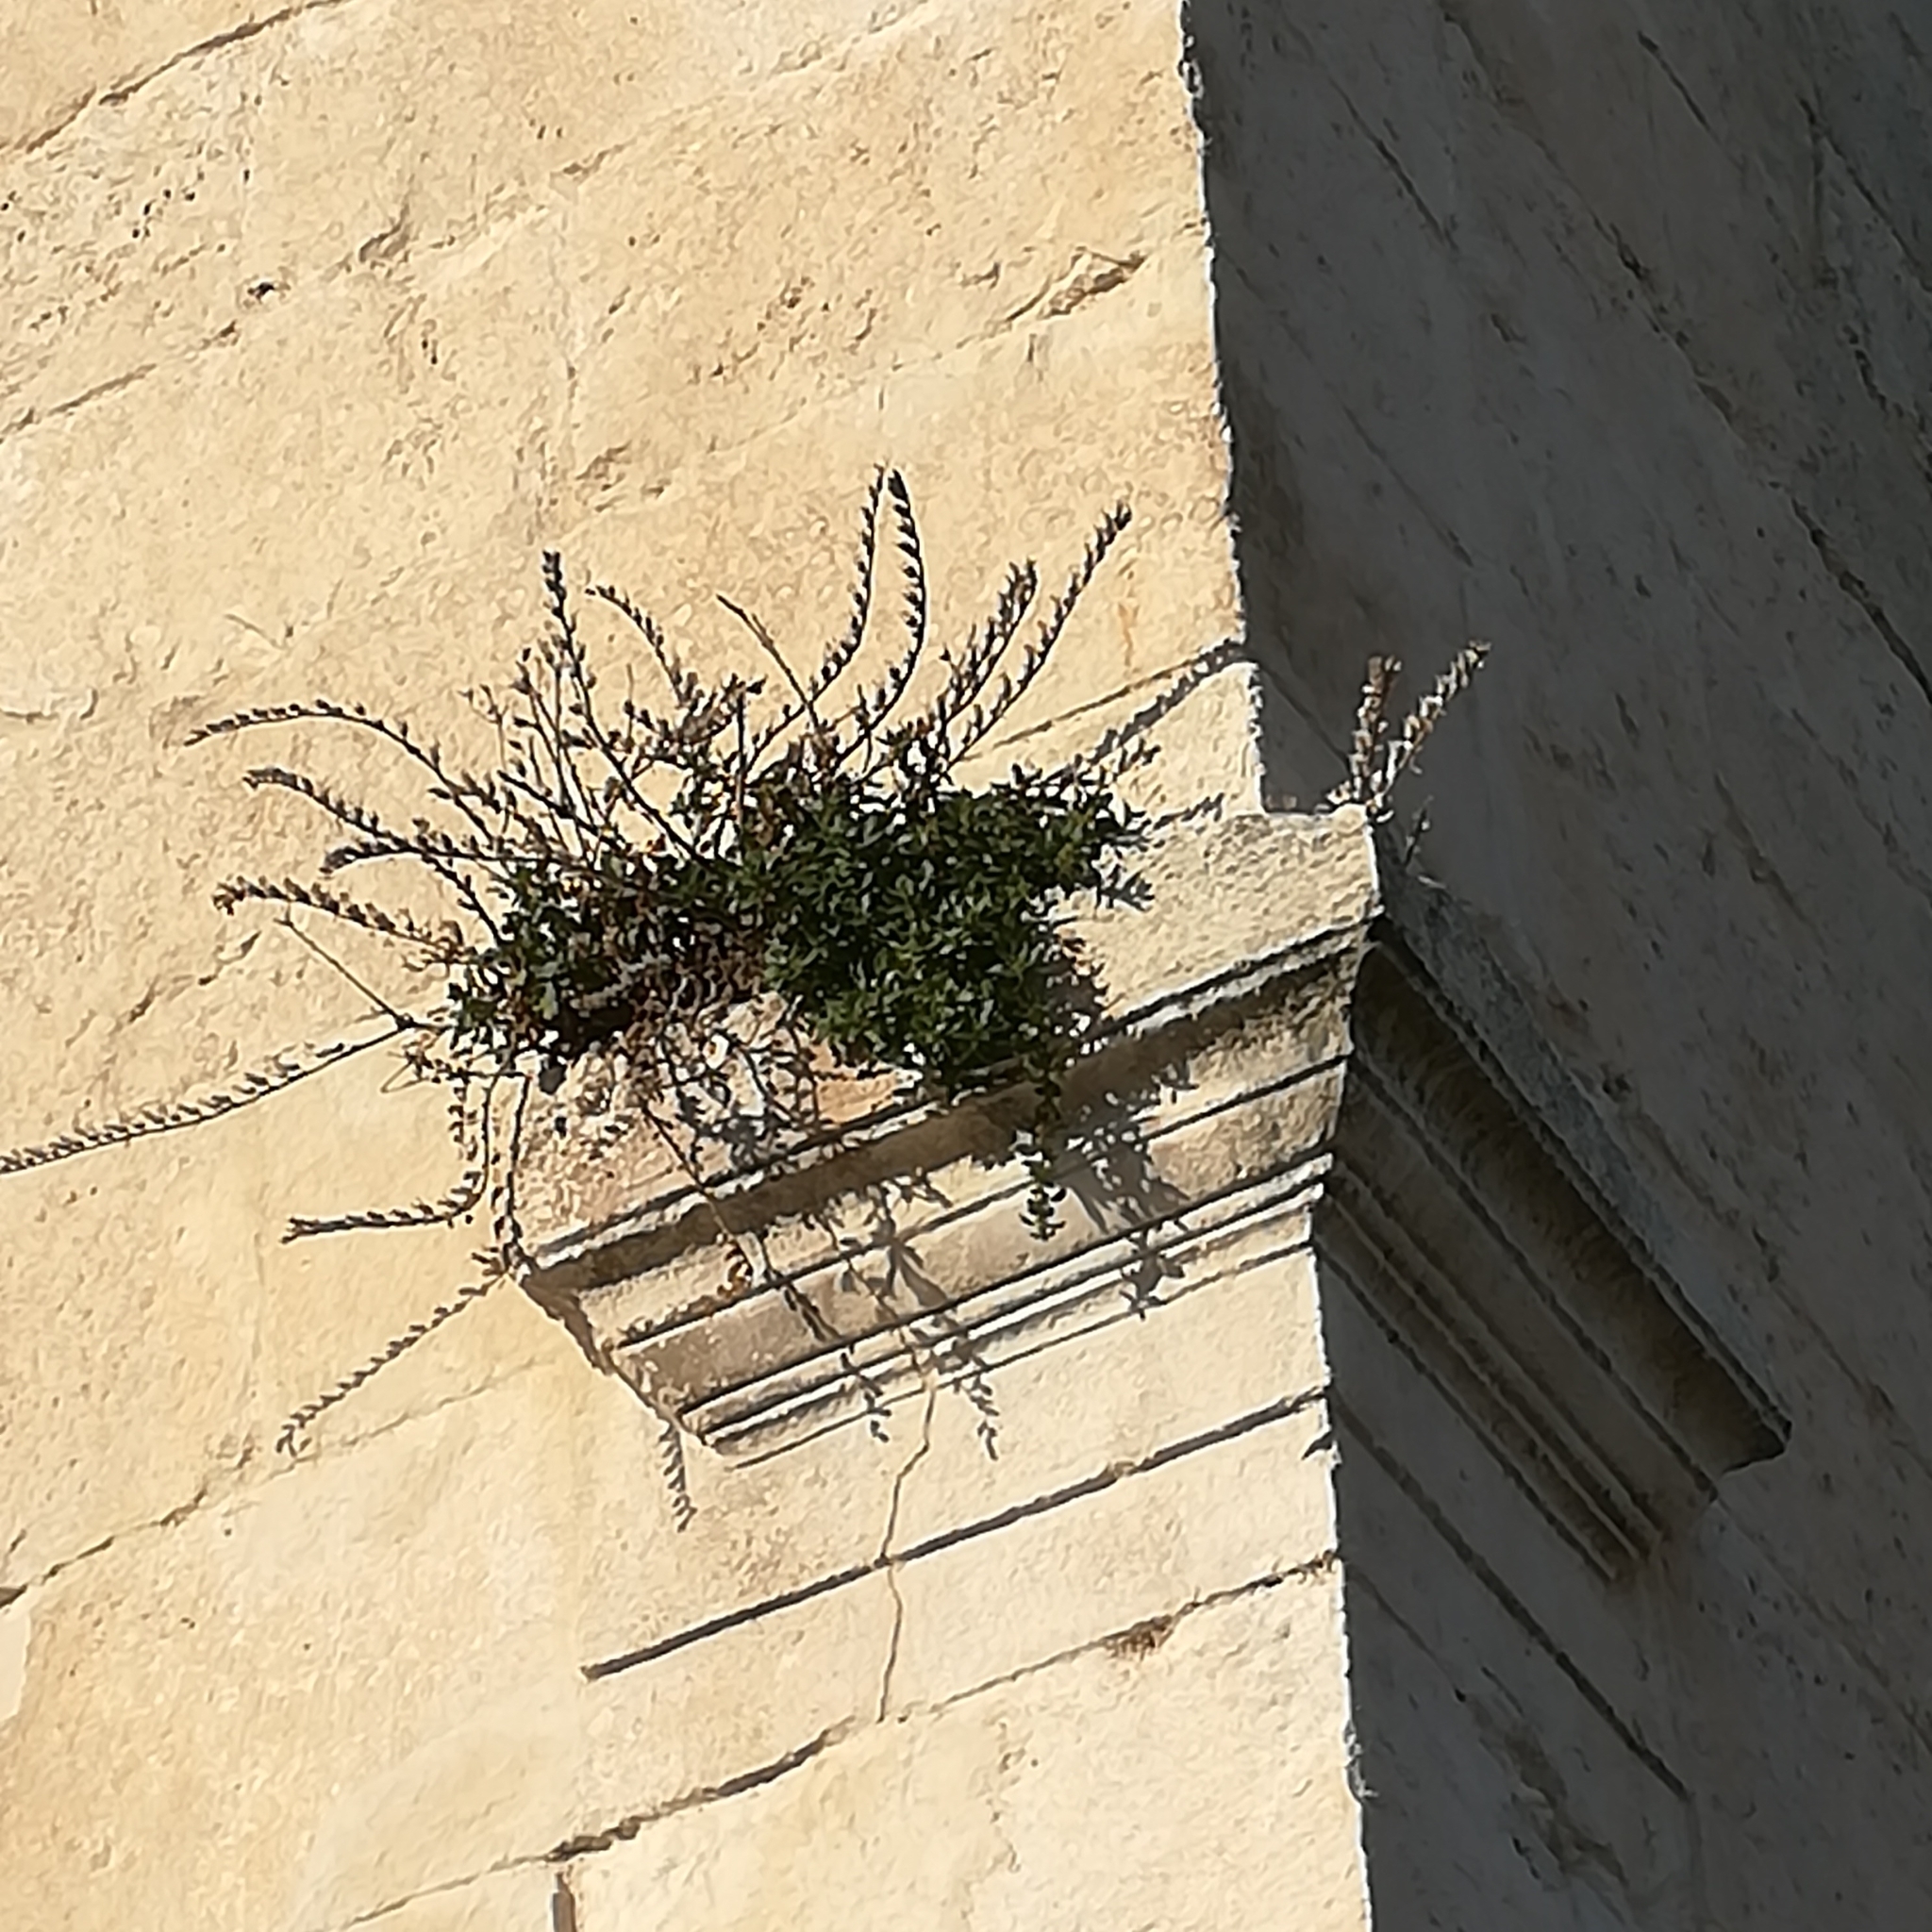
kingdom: Plantae
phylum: Tracheophyta
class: Magnoliopsida
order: Solanales
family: Solanaceae
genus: Hyoscyamus
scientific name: Hyoscyamus albus
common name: White henbane
